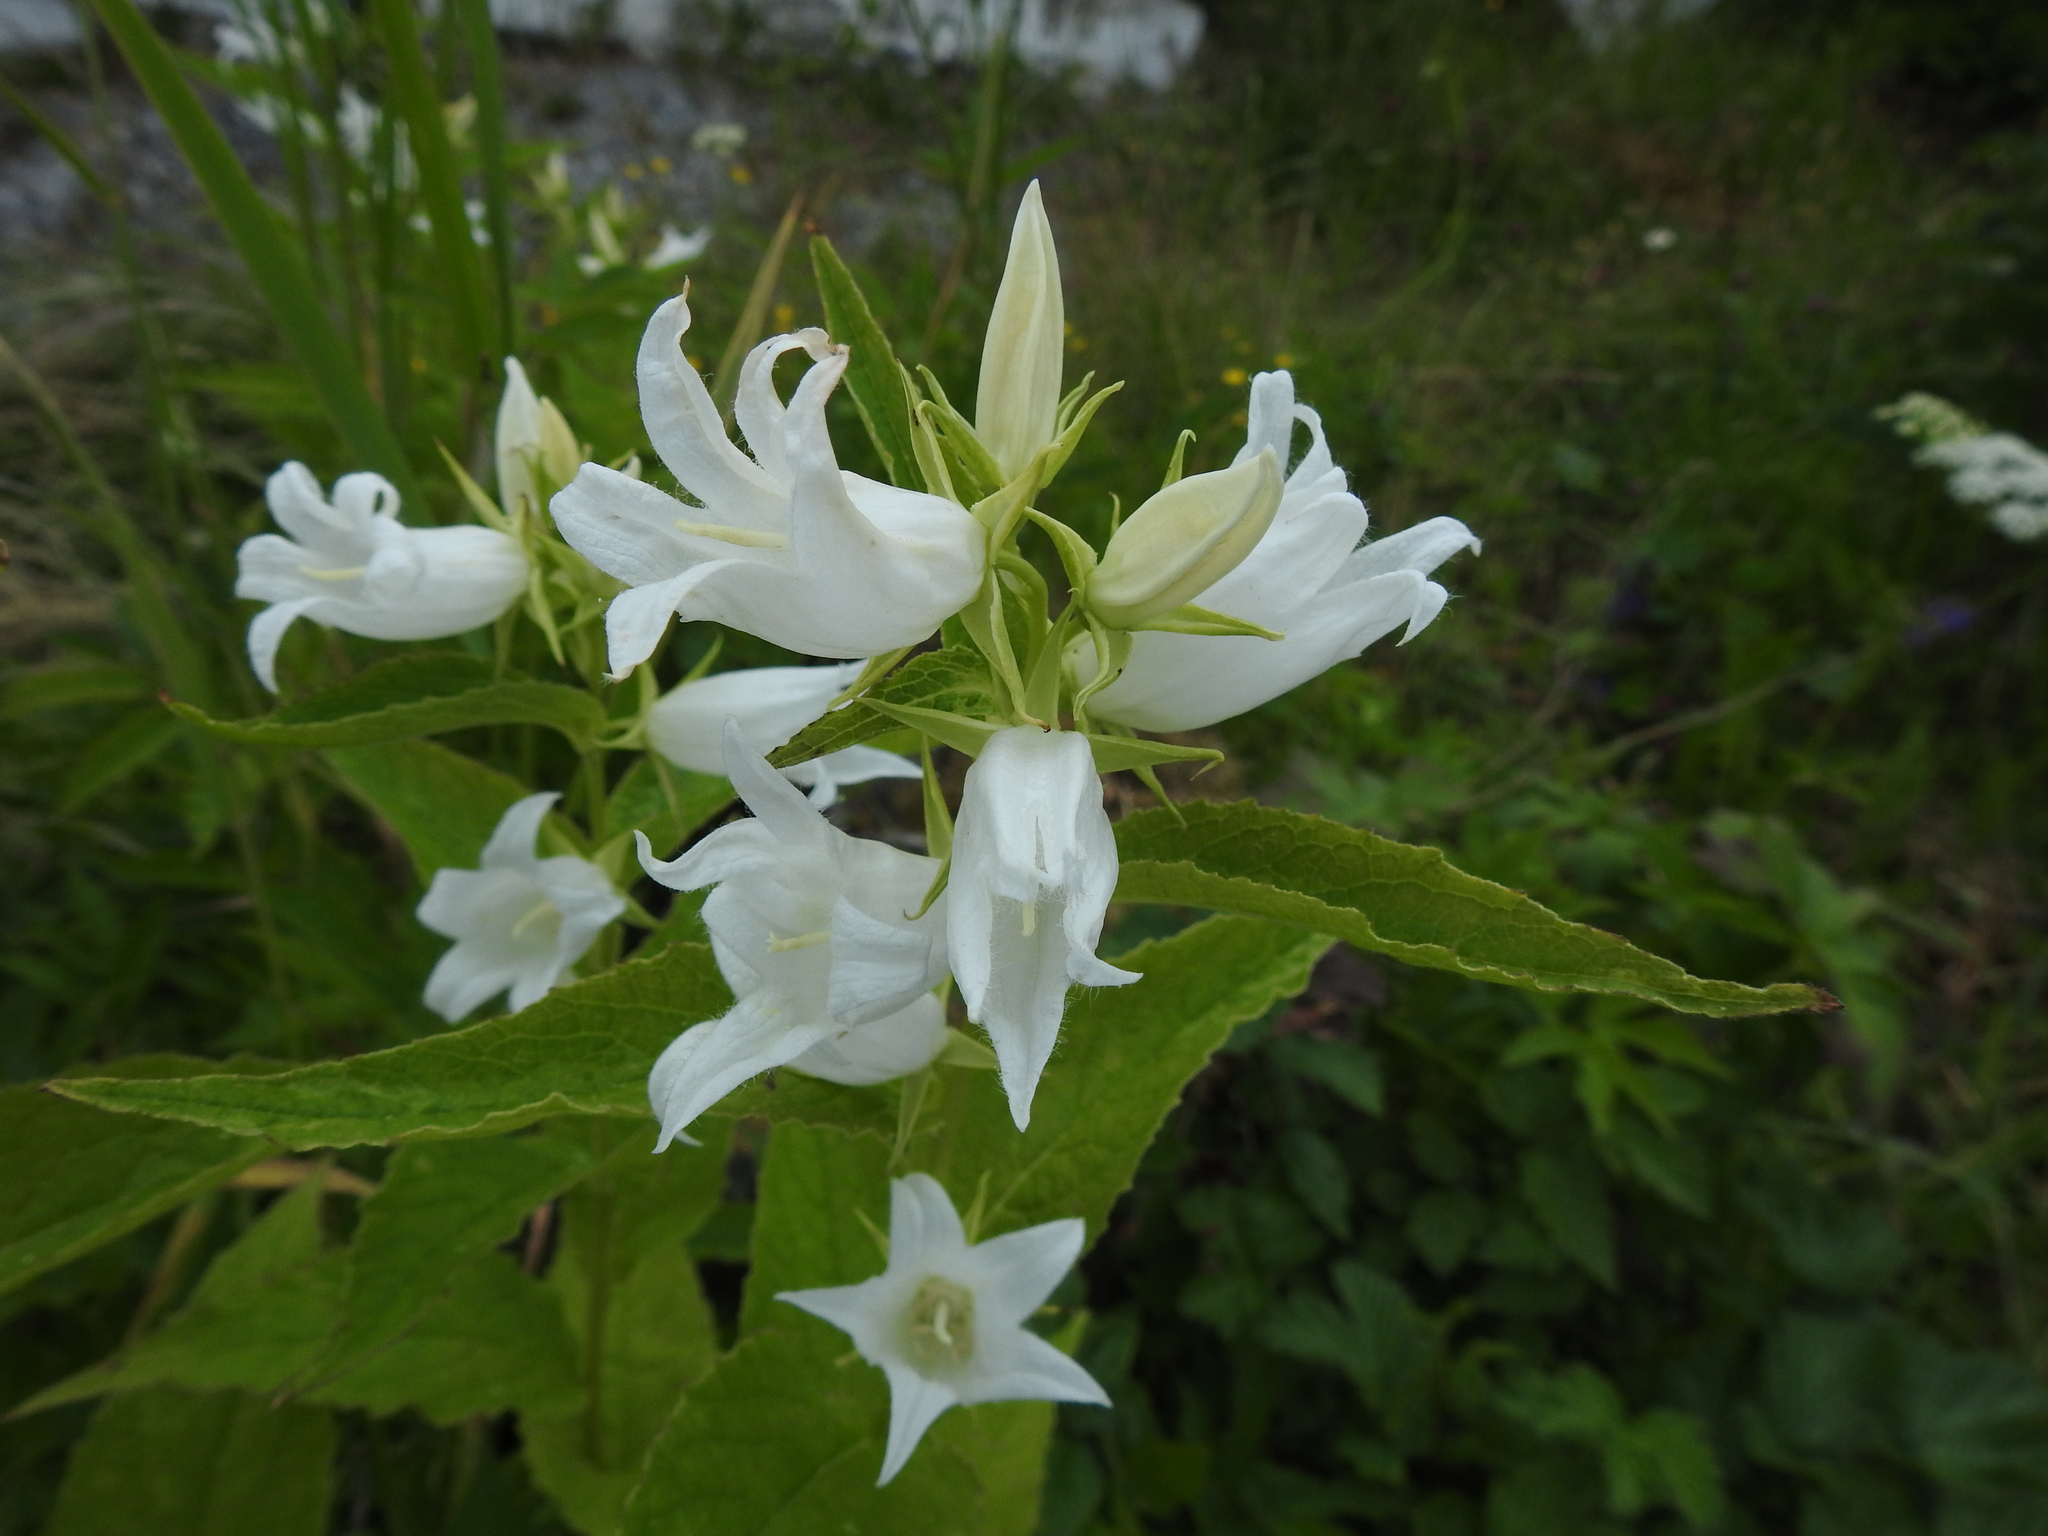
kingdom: Plantae
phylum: Tracheophyta
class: Magnoliopsida
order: Asterales
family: Campanulaceae
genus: Campanula
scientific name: Campanula latifolia
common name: Giant bellflower
